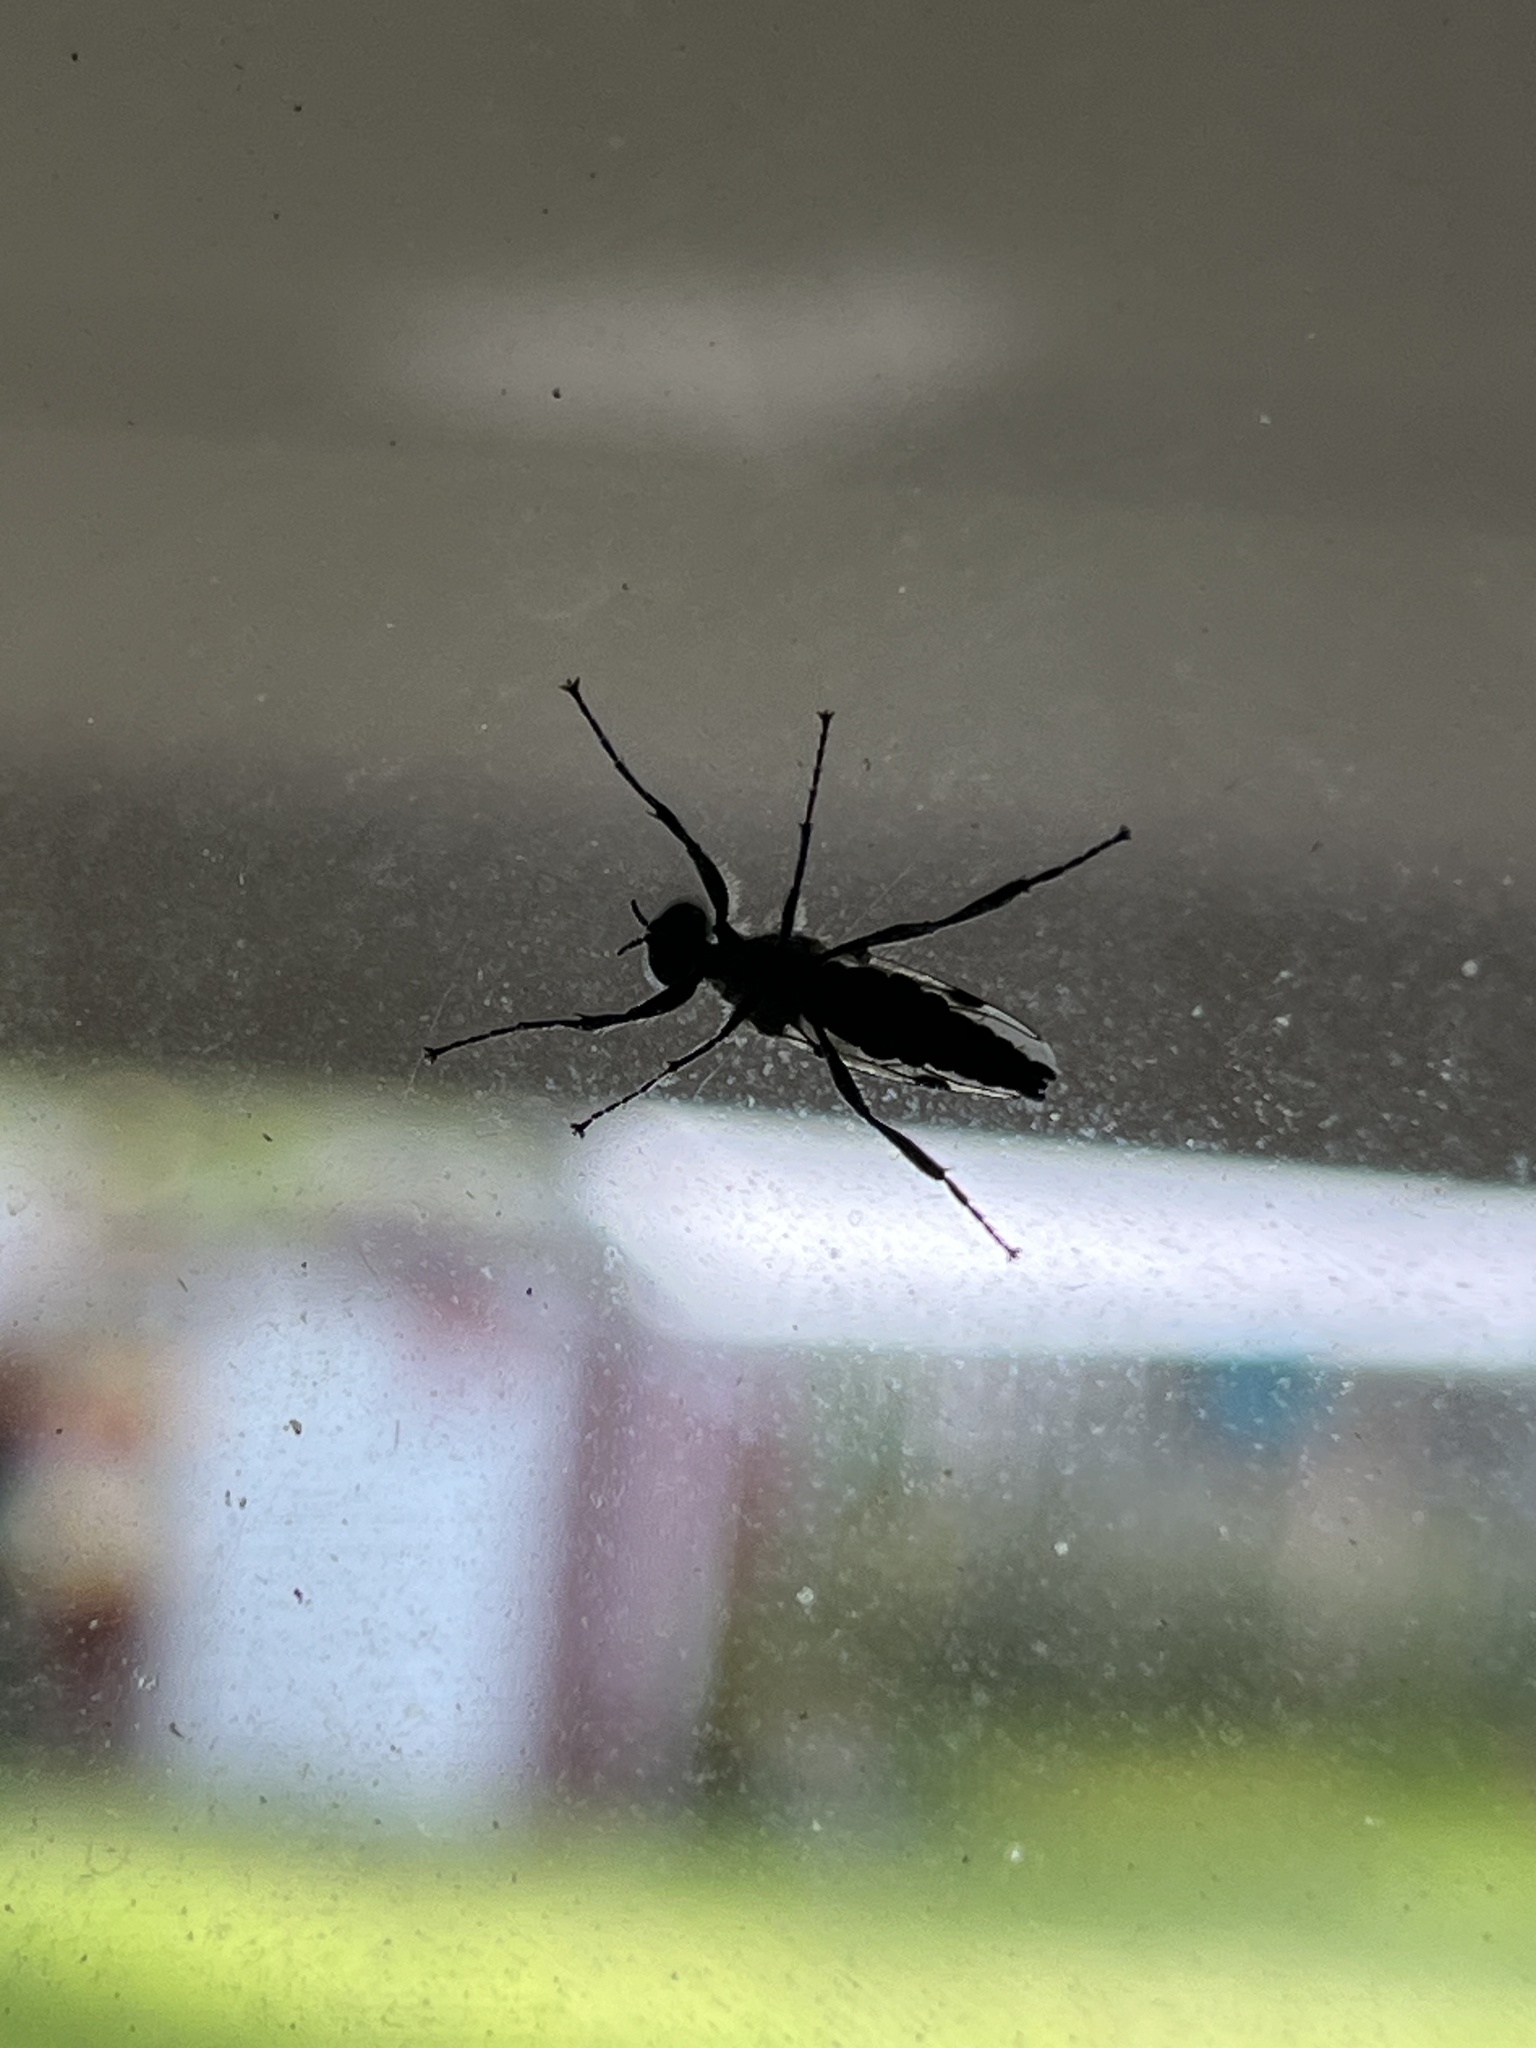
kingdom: Animalia
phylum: Arthropoda
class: Insecta
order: Diptera
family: Bibionidae
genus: Bibio
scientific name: Bibio albipennis
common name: White-winged march fly
